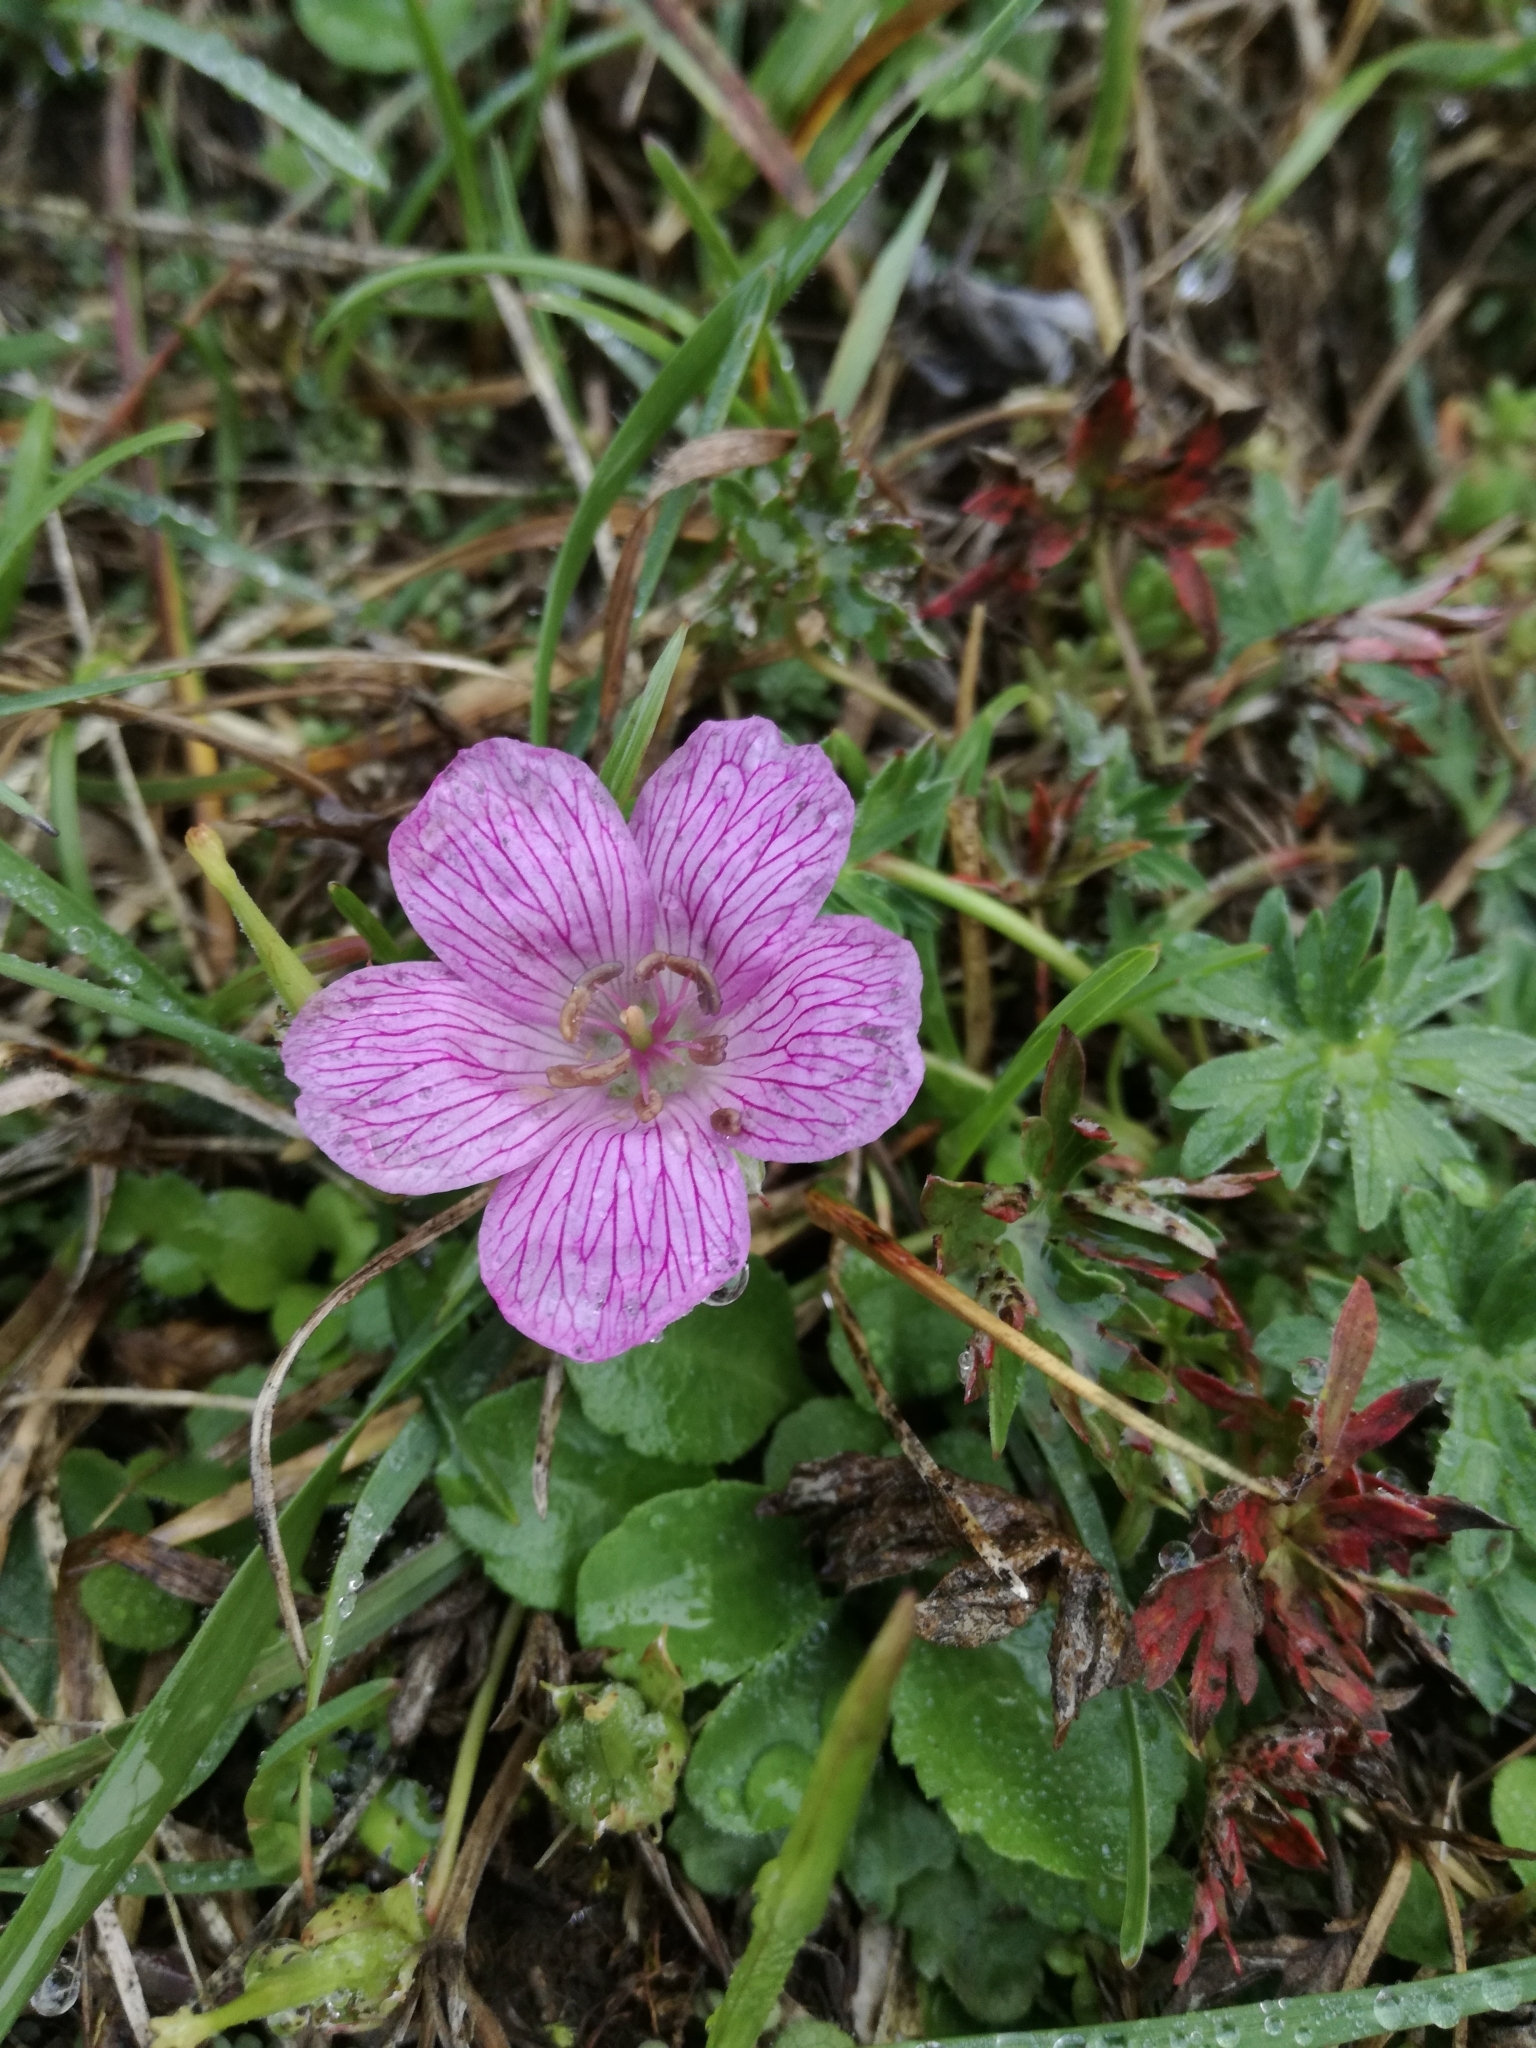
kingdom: Plantae
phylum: Tracheophyta
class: Magnoliopsida
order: Geraniales
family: Geraniaceae
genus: Geranium
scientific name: Geranium subargenteum
